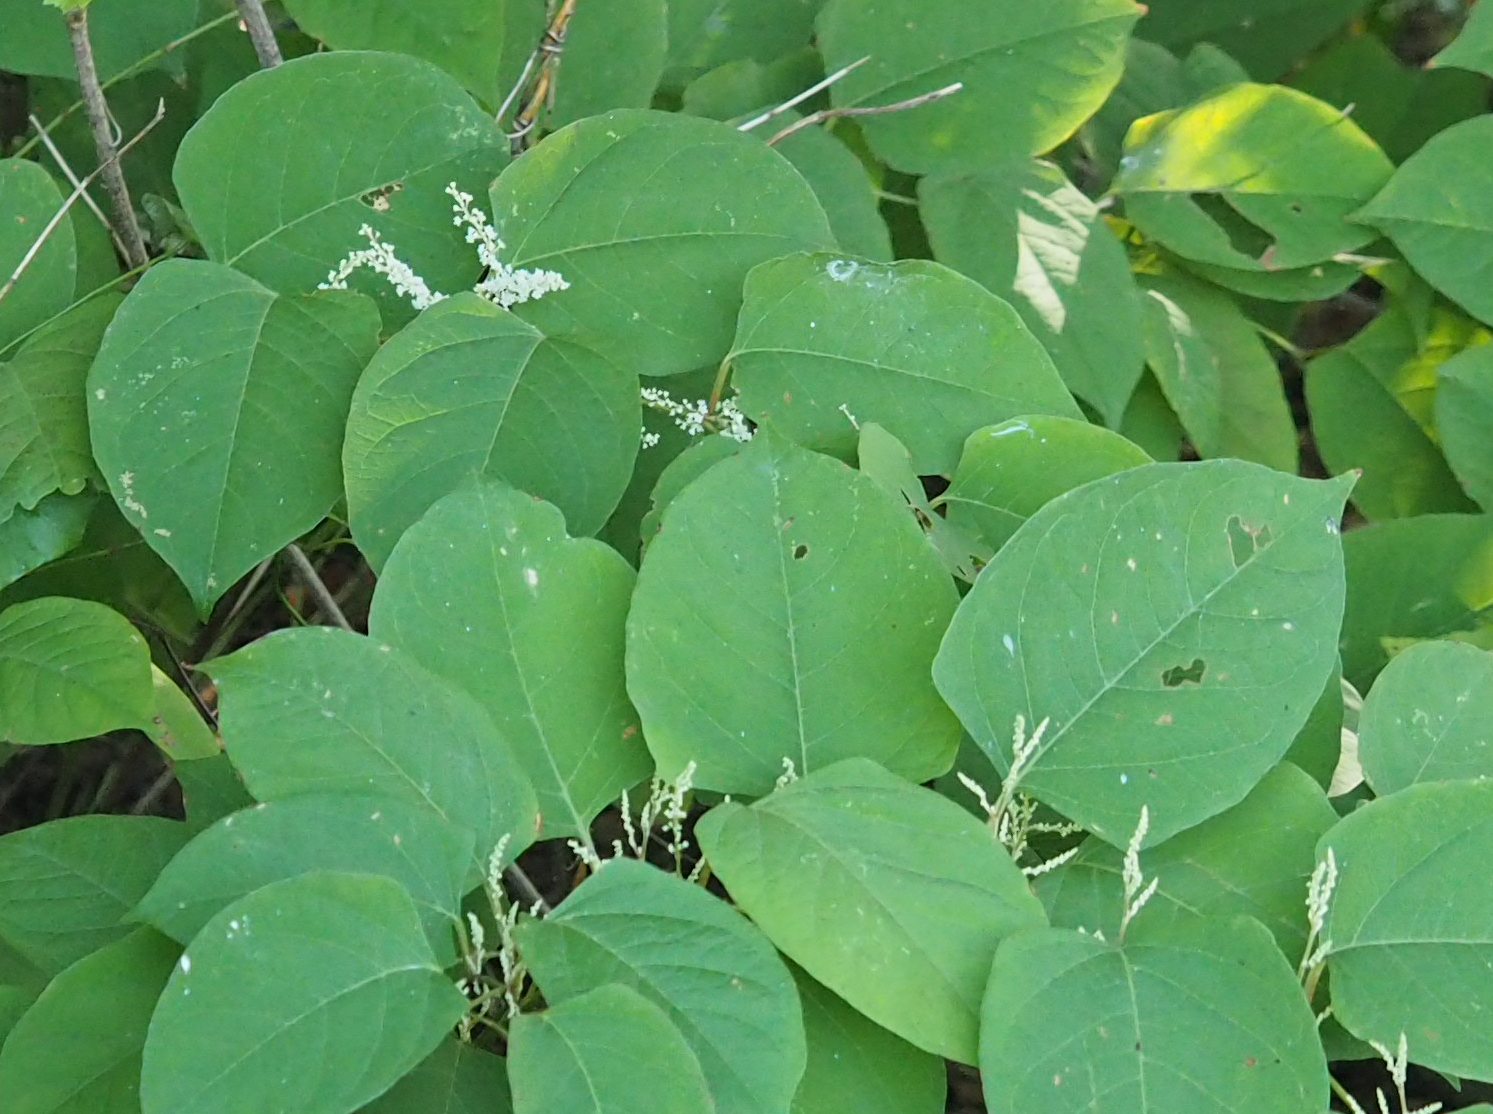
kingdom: Plantae
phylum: Tracheophyta
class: Magnoliopsida
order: Caryophyllales
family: Polygonaceae
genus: Reynoutria
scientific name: Reynoutria japonica
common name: Japanese knotweed
